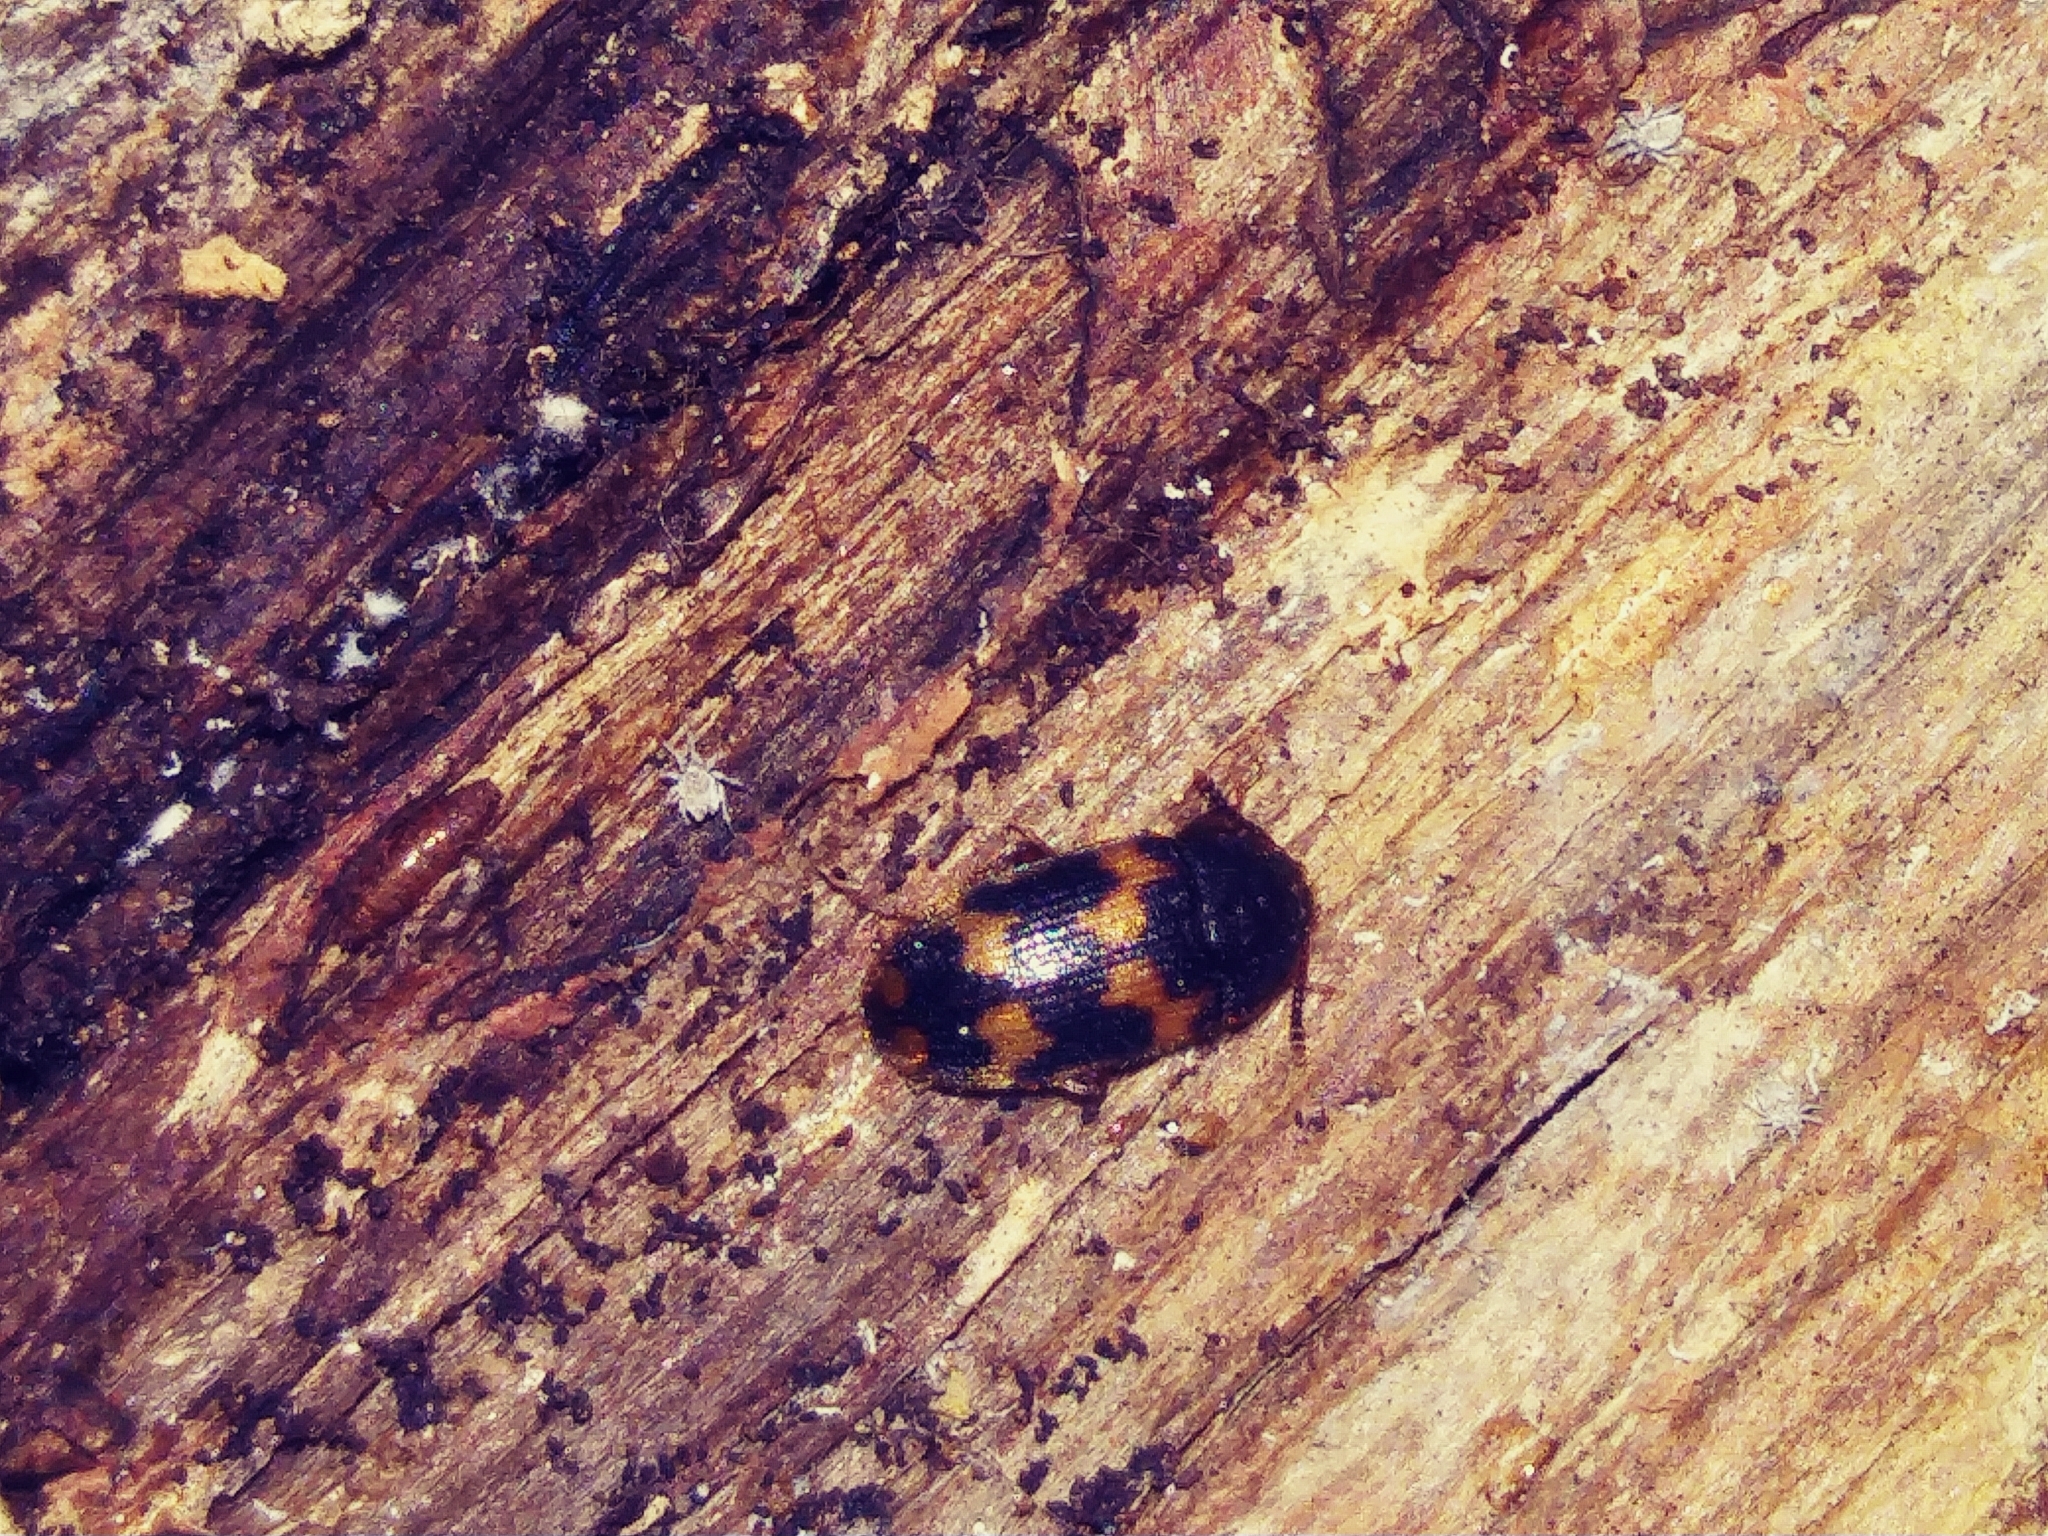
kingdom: Animalia
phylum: Arthropoda
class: Insecta
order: Coleoptera
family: Mycetophagidae
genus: Mycetophagus
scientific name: Mycetophagus serrulatus
